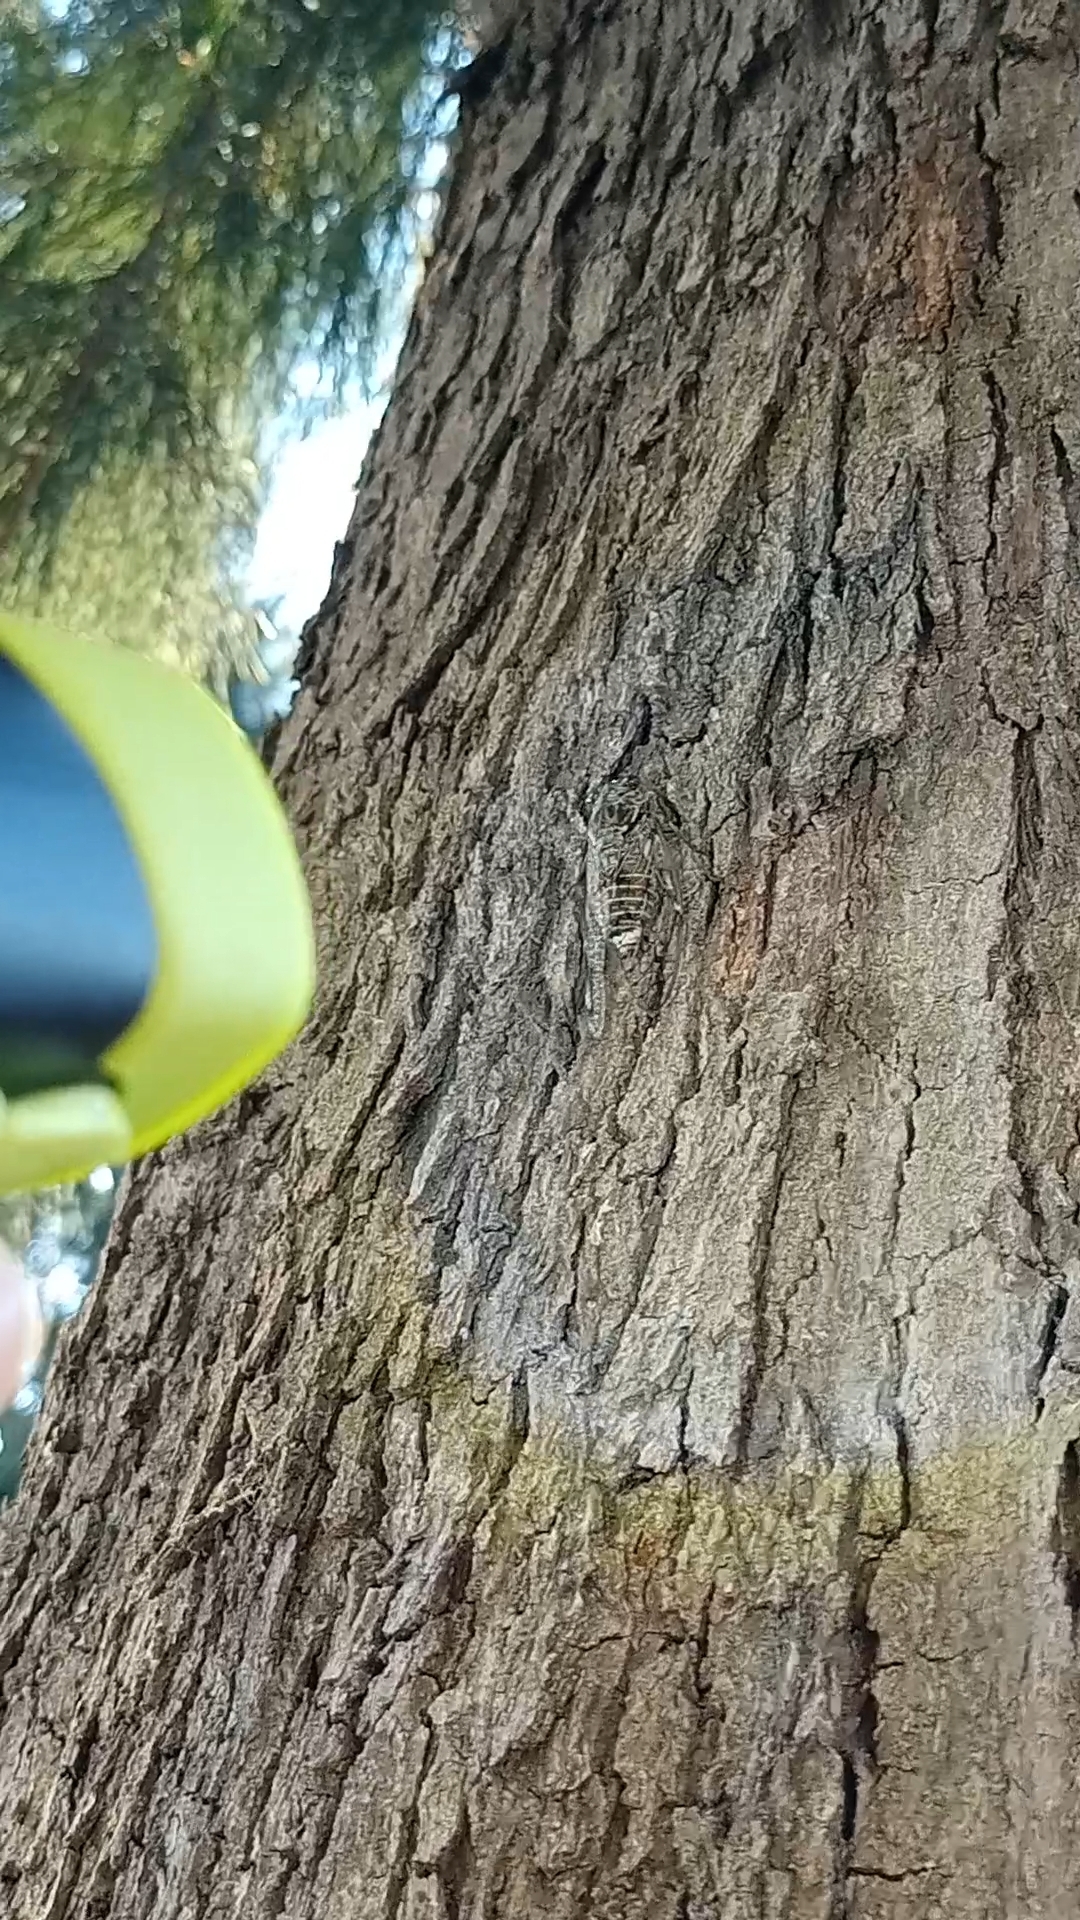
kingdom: Animalia
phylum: Arthropoda
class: Insecta
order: Hemiptera
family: Cicadidae
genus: Cicada
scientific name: Cicada mordoganensis
